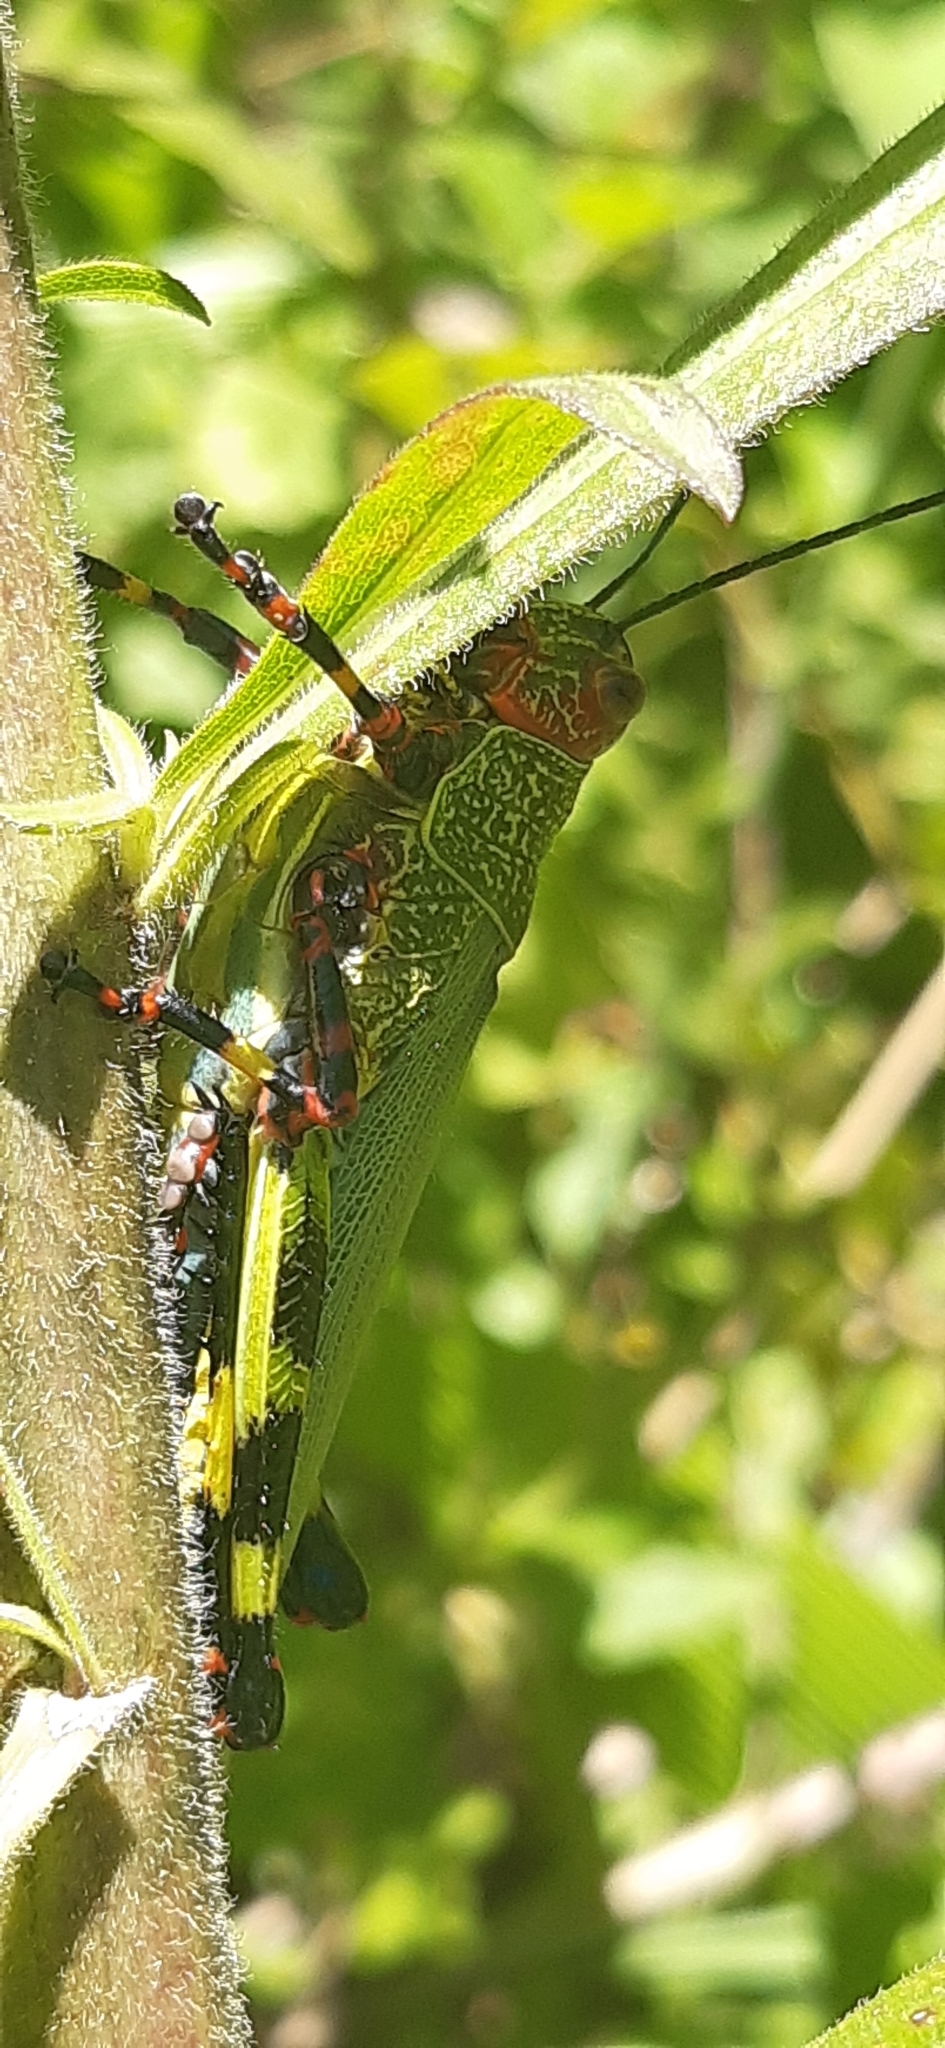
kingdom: Animalia
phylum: Arthropoda
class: Insecta
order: Orthoptera
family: Romaleidae
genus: Zoniopoda
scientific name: Zoniopoda tarsata
